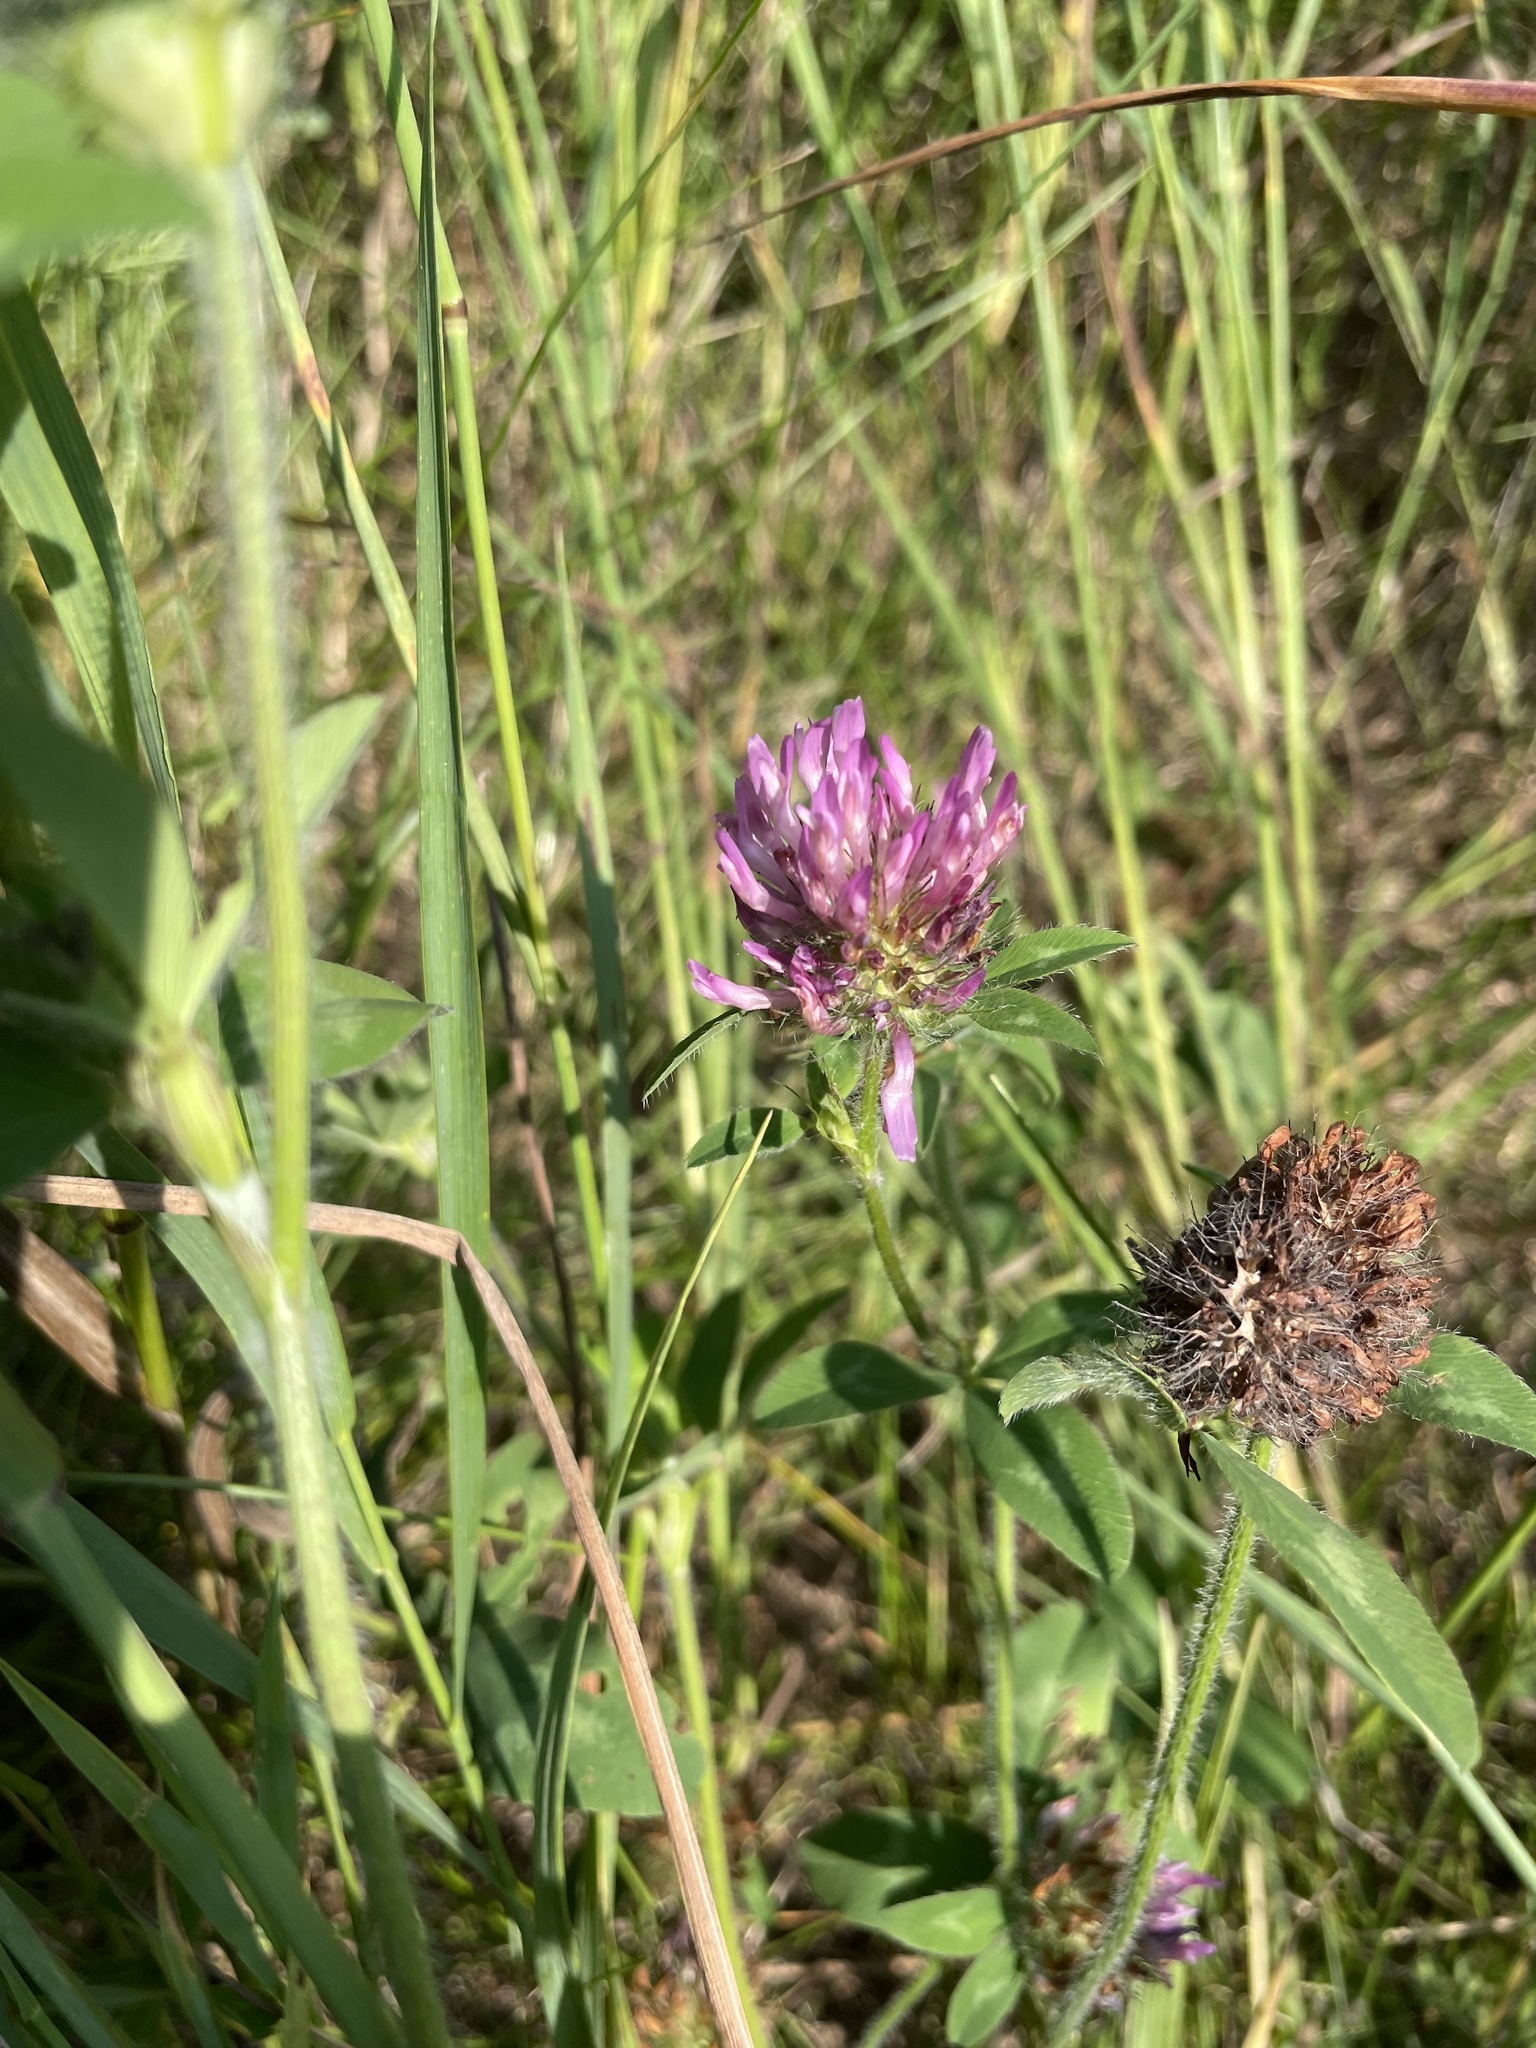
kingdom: Plantae
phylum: Tracheophyta
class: Magnoliopsida
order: Fabales
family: Fabaceae
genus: Trifolium
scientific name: Trifolium pratense
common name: Red clover
